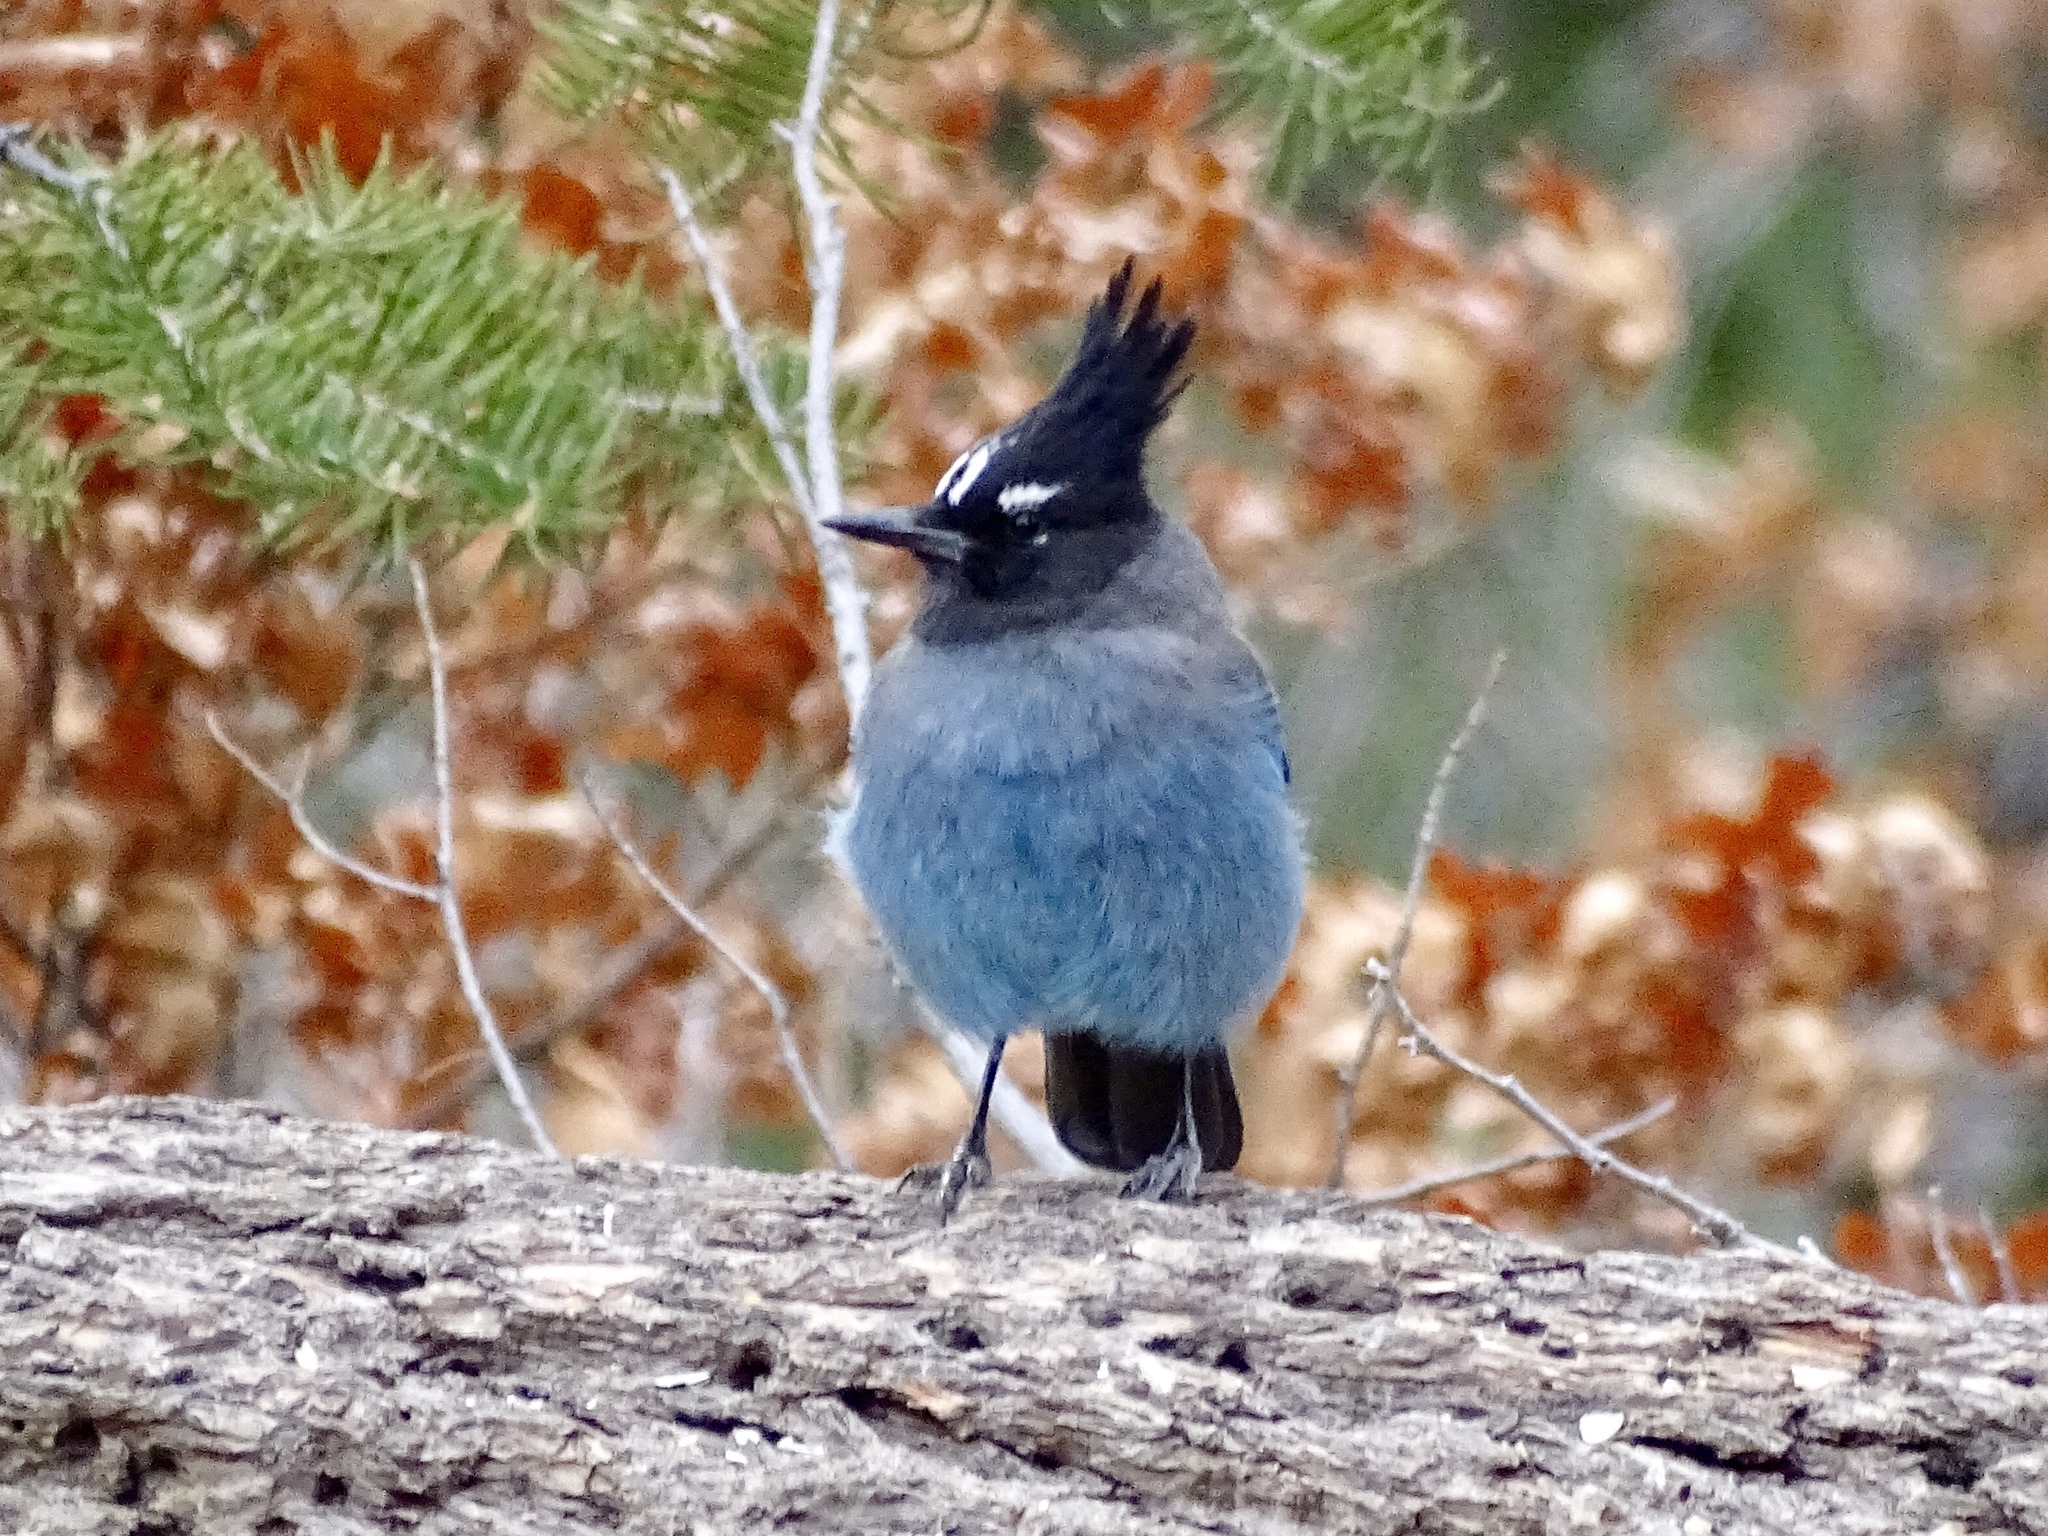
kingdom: Animalia
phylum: Chordata
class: Aves
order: Passeriformes
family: Corvidae
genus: Cyanocitta
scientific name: Cyanocitta stelleri
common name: Steller's jay
